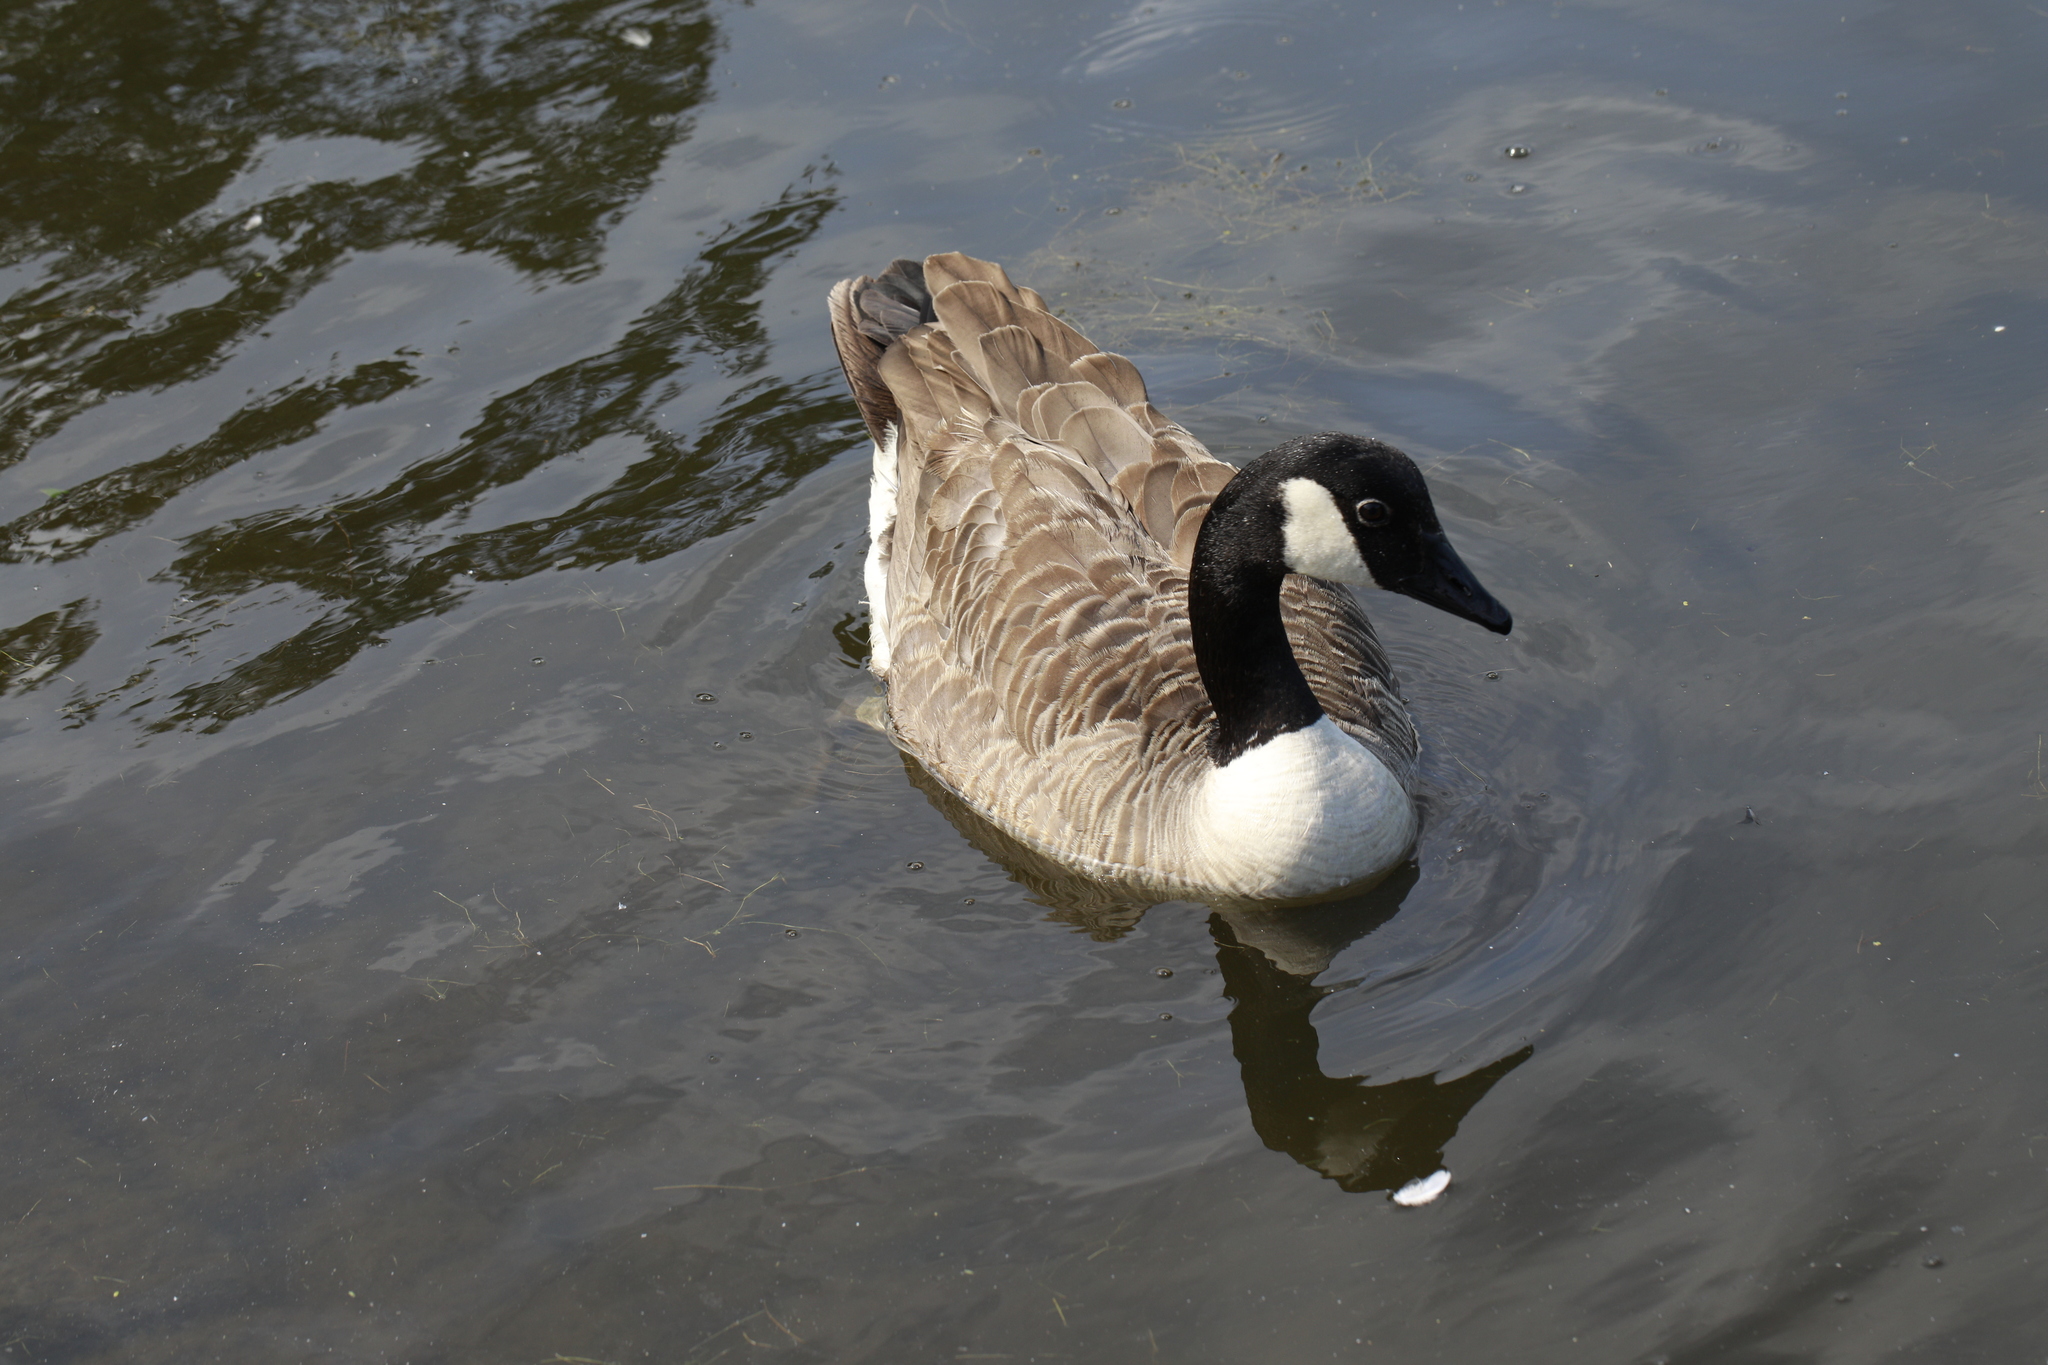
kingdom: Animalia
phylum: Chordata
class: Aves
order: Anseriformes
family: Anatidae
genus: Branta
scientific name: Branta canadensis
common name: Canada goose
